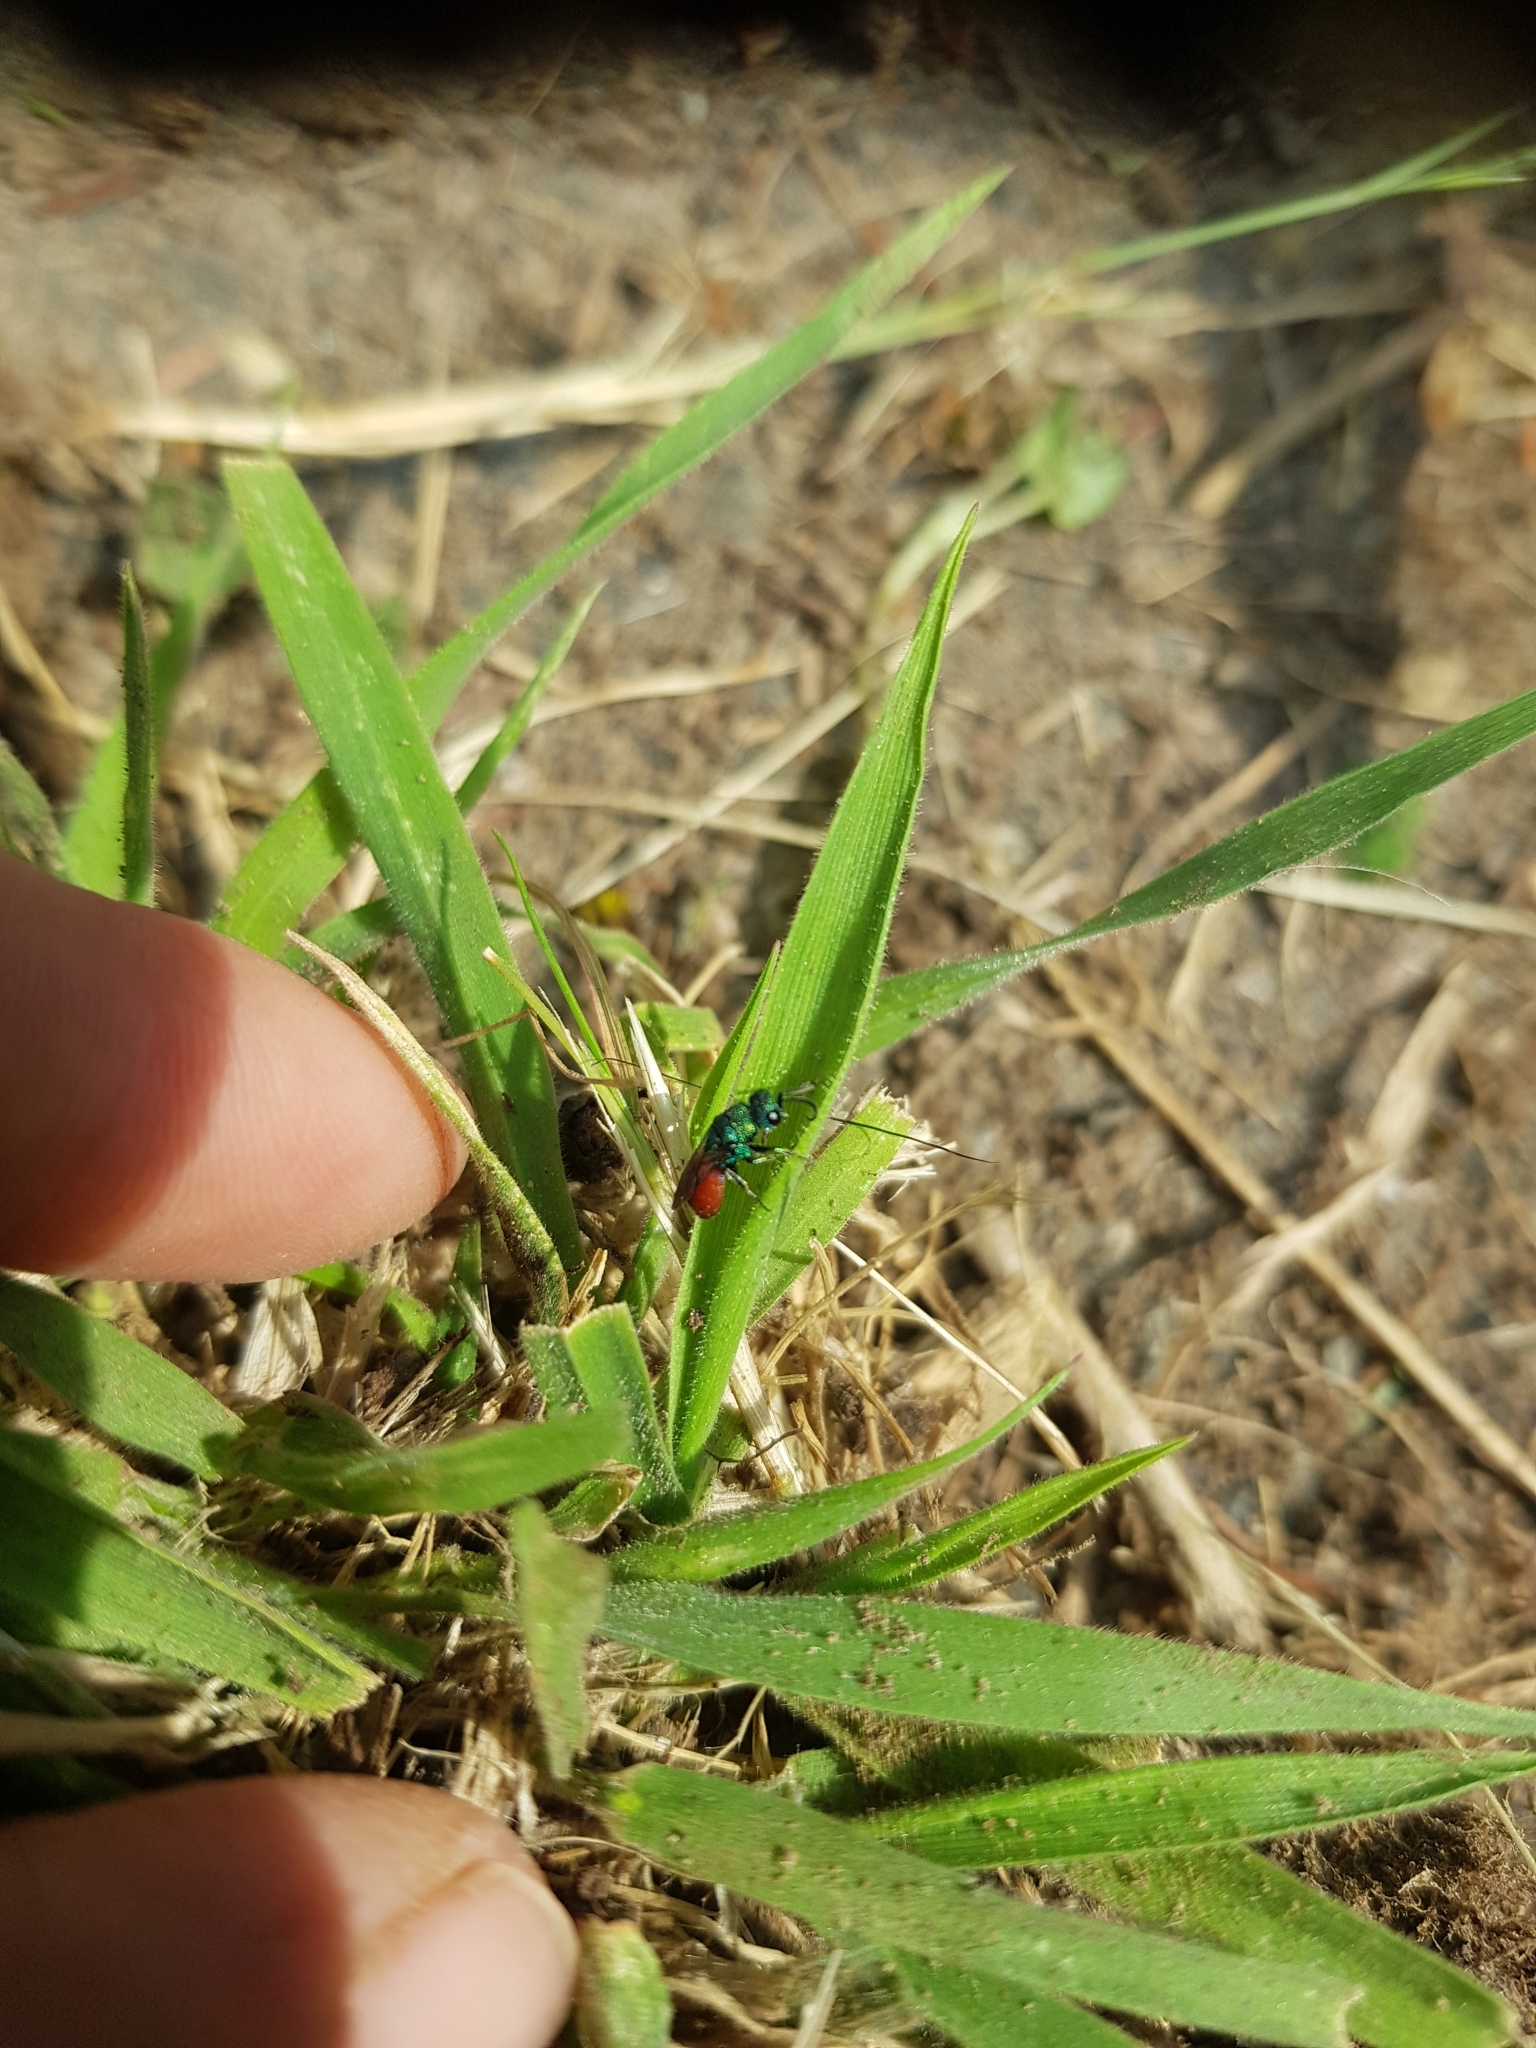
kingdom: Animalia
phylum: Arthropoda
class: Insecta
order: Hymenoptera
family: Chrysididae
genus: Hedychridium
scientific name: Hedychridium roseum
